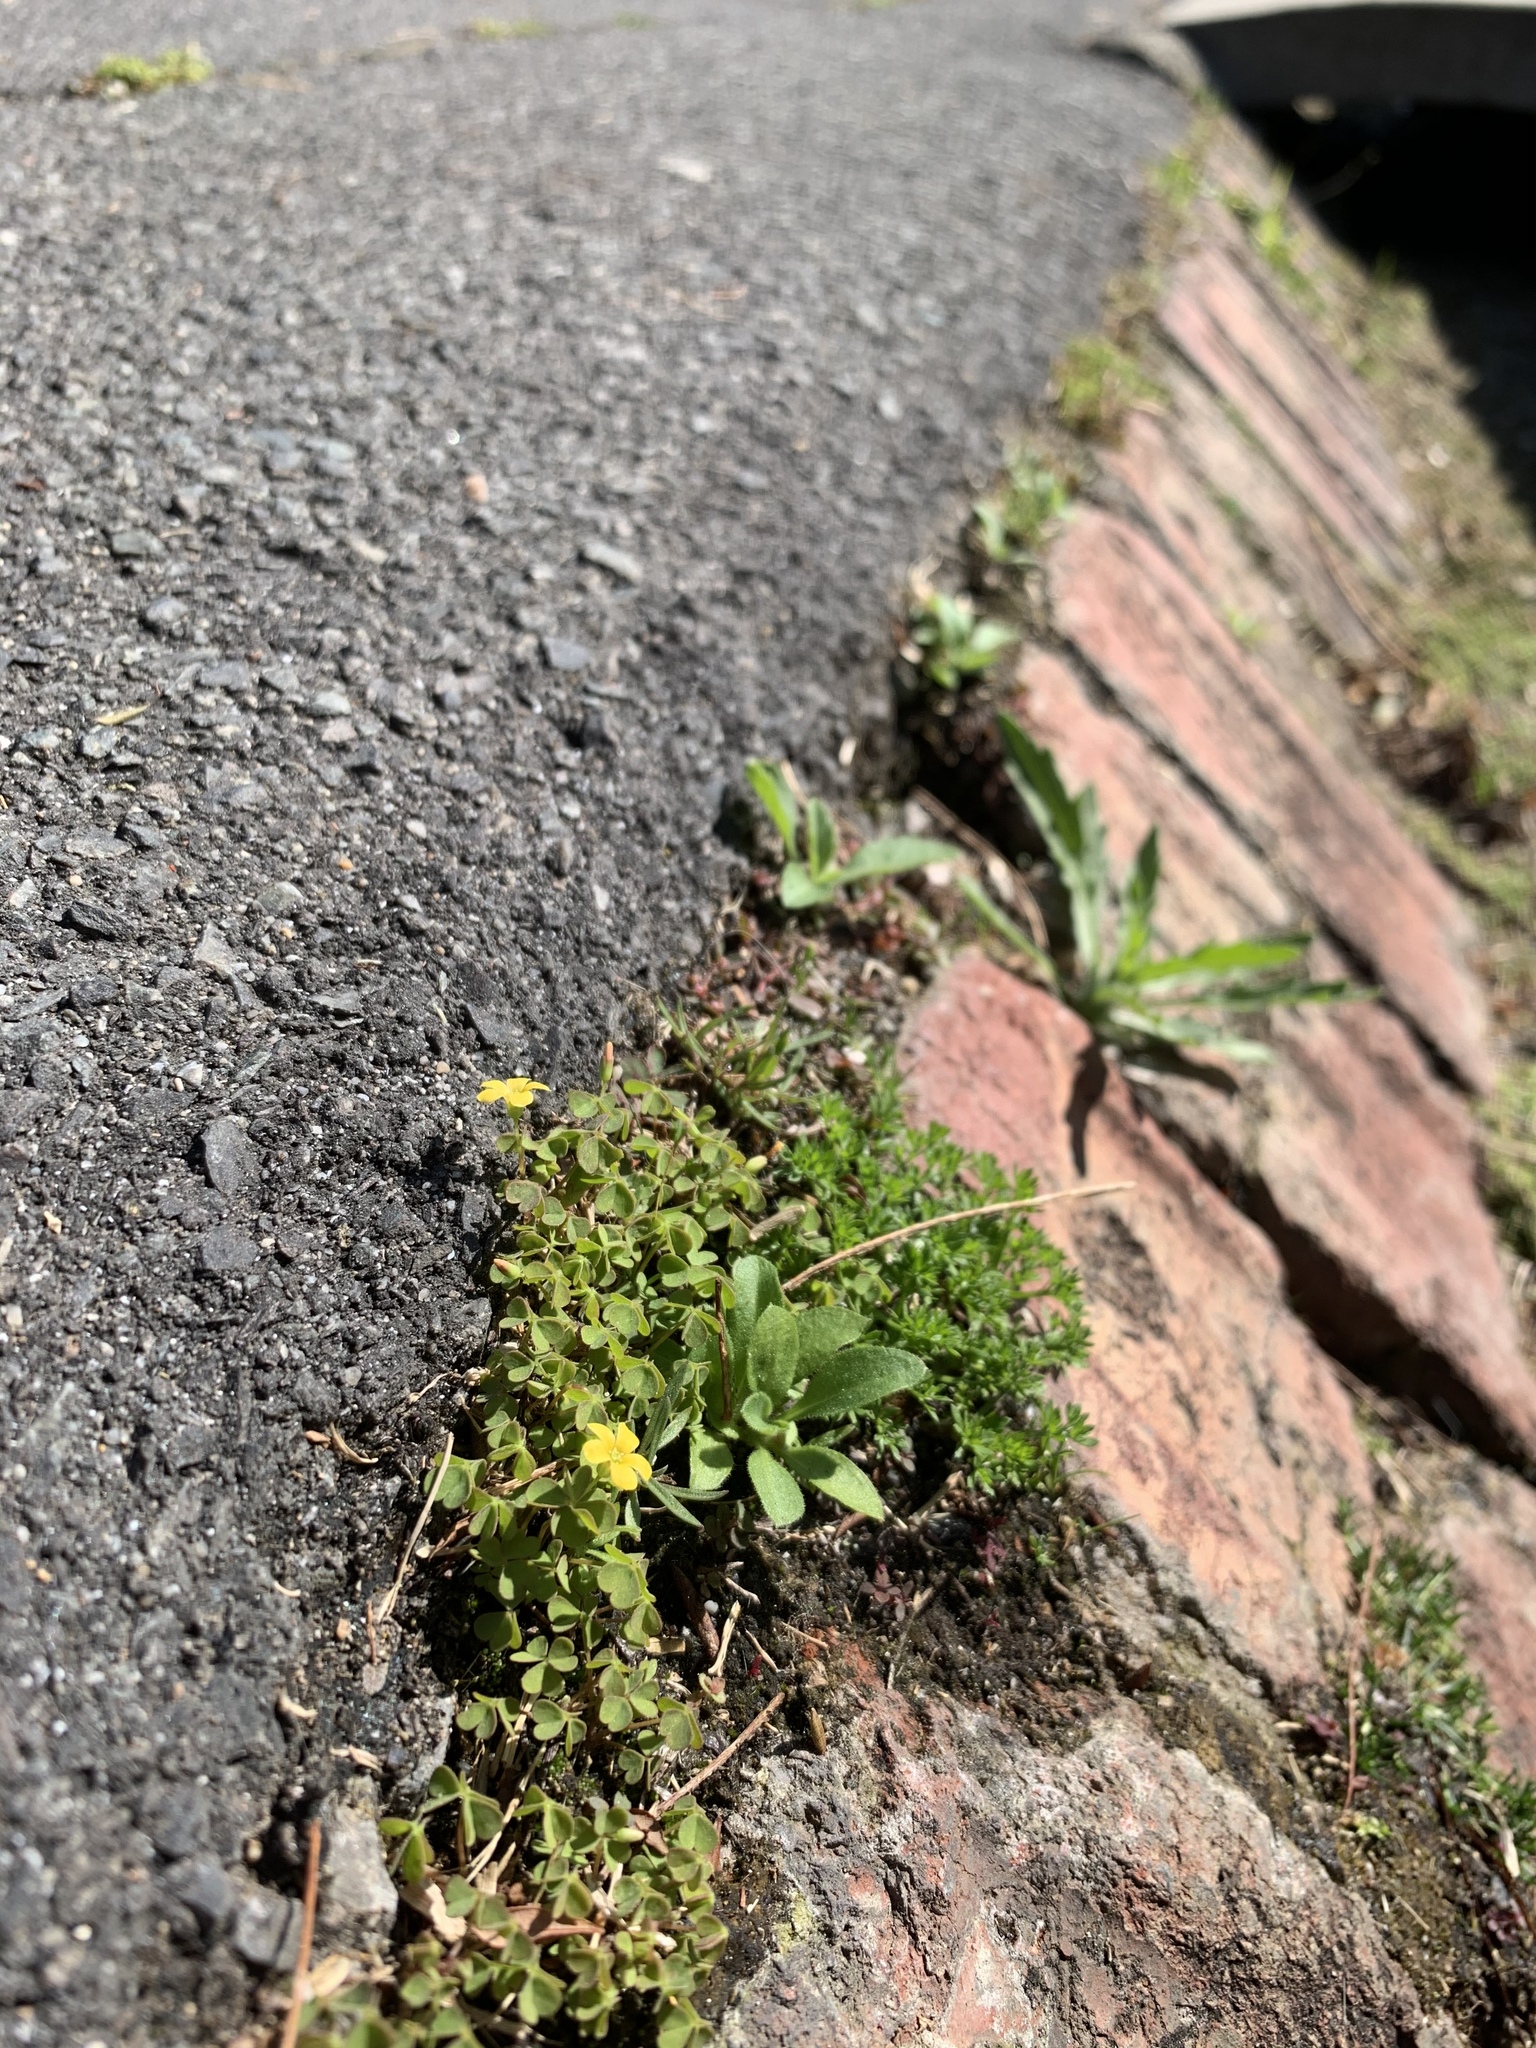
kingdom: Plantae
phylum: Tracheophyta
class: Magnoliopsida
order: Oxalidales
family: Oxalidaceae
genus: Oxalis
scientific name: Oxalis corniculata
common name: Procumbent yellow-sorrel
